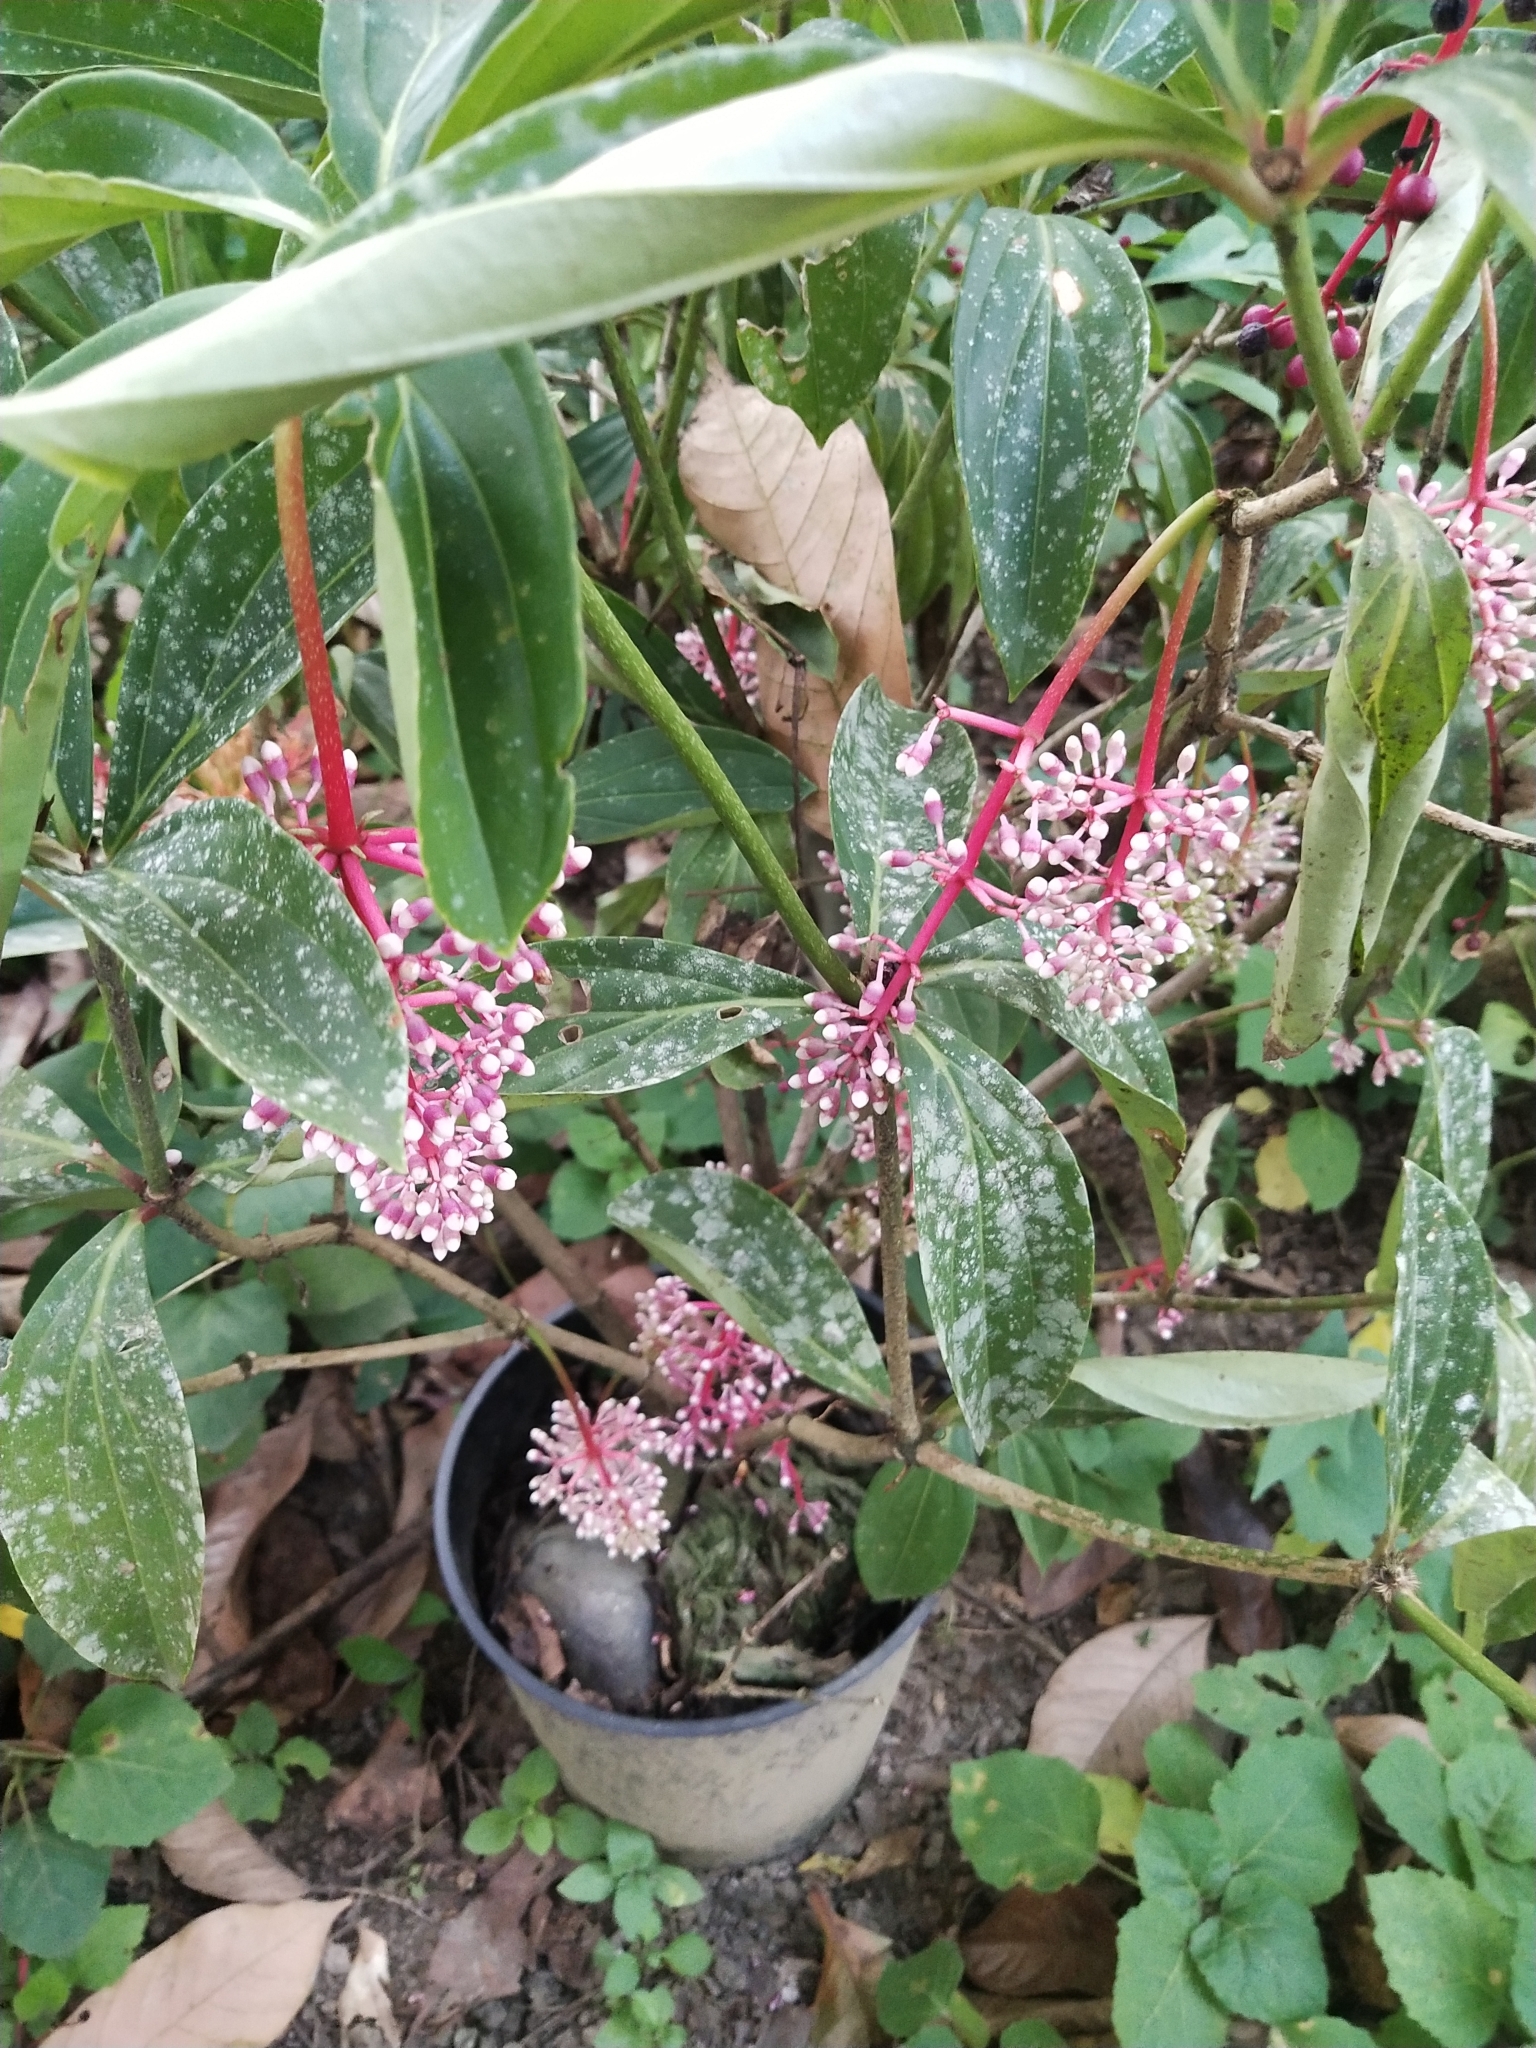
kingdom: Plantae
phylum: Tracheophyta
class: Magnoliopsida
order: Myrtales
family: Melastomataceae
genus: Medinilla
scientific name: Medinilla pendula
